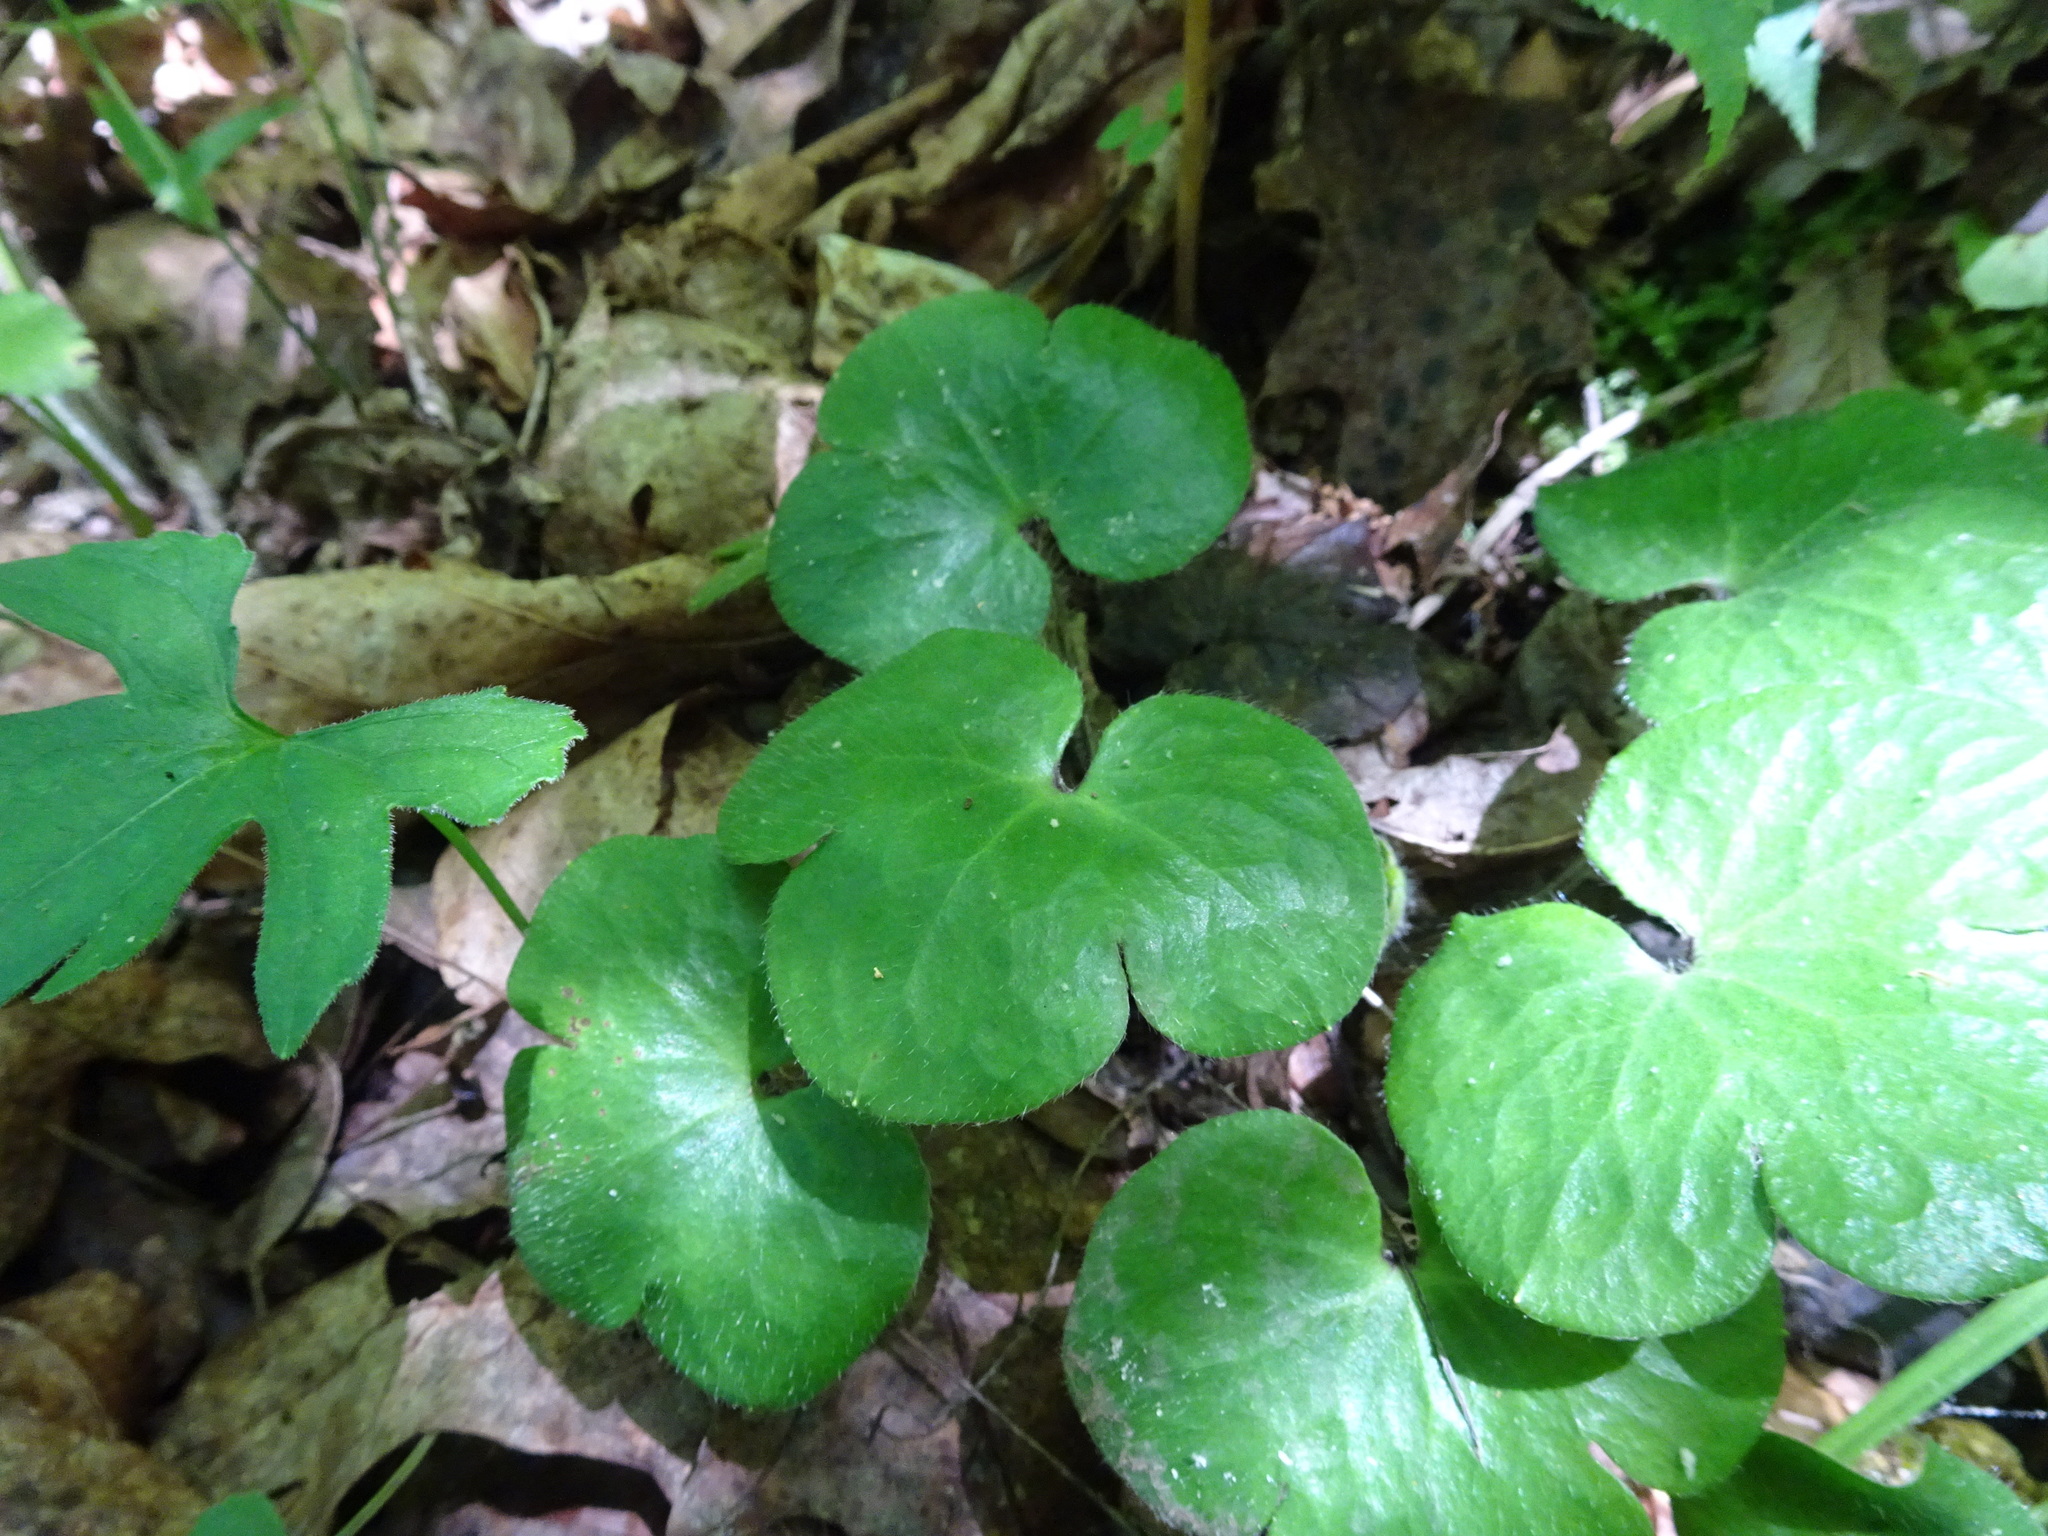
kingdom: Plantae
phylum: Tracheophyta
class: Magnoliopsida
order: Ranunculales
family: Ranunculaceae
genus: Hepatica
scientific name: Hepatica americana
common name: American hepatica
